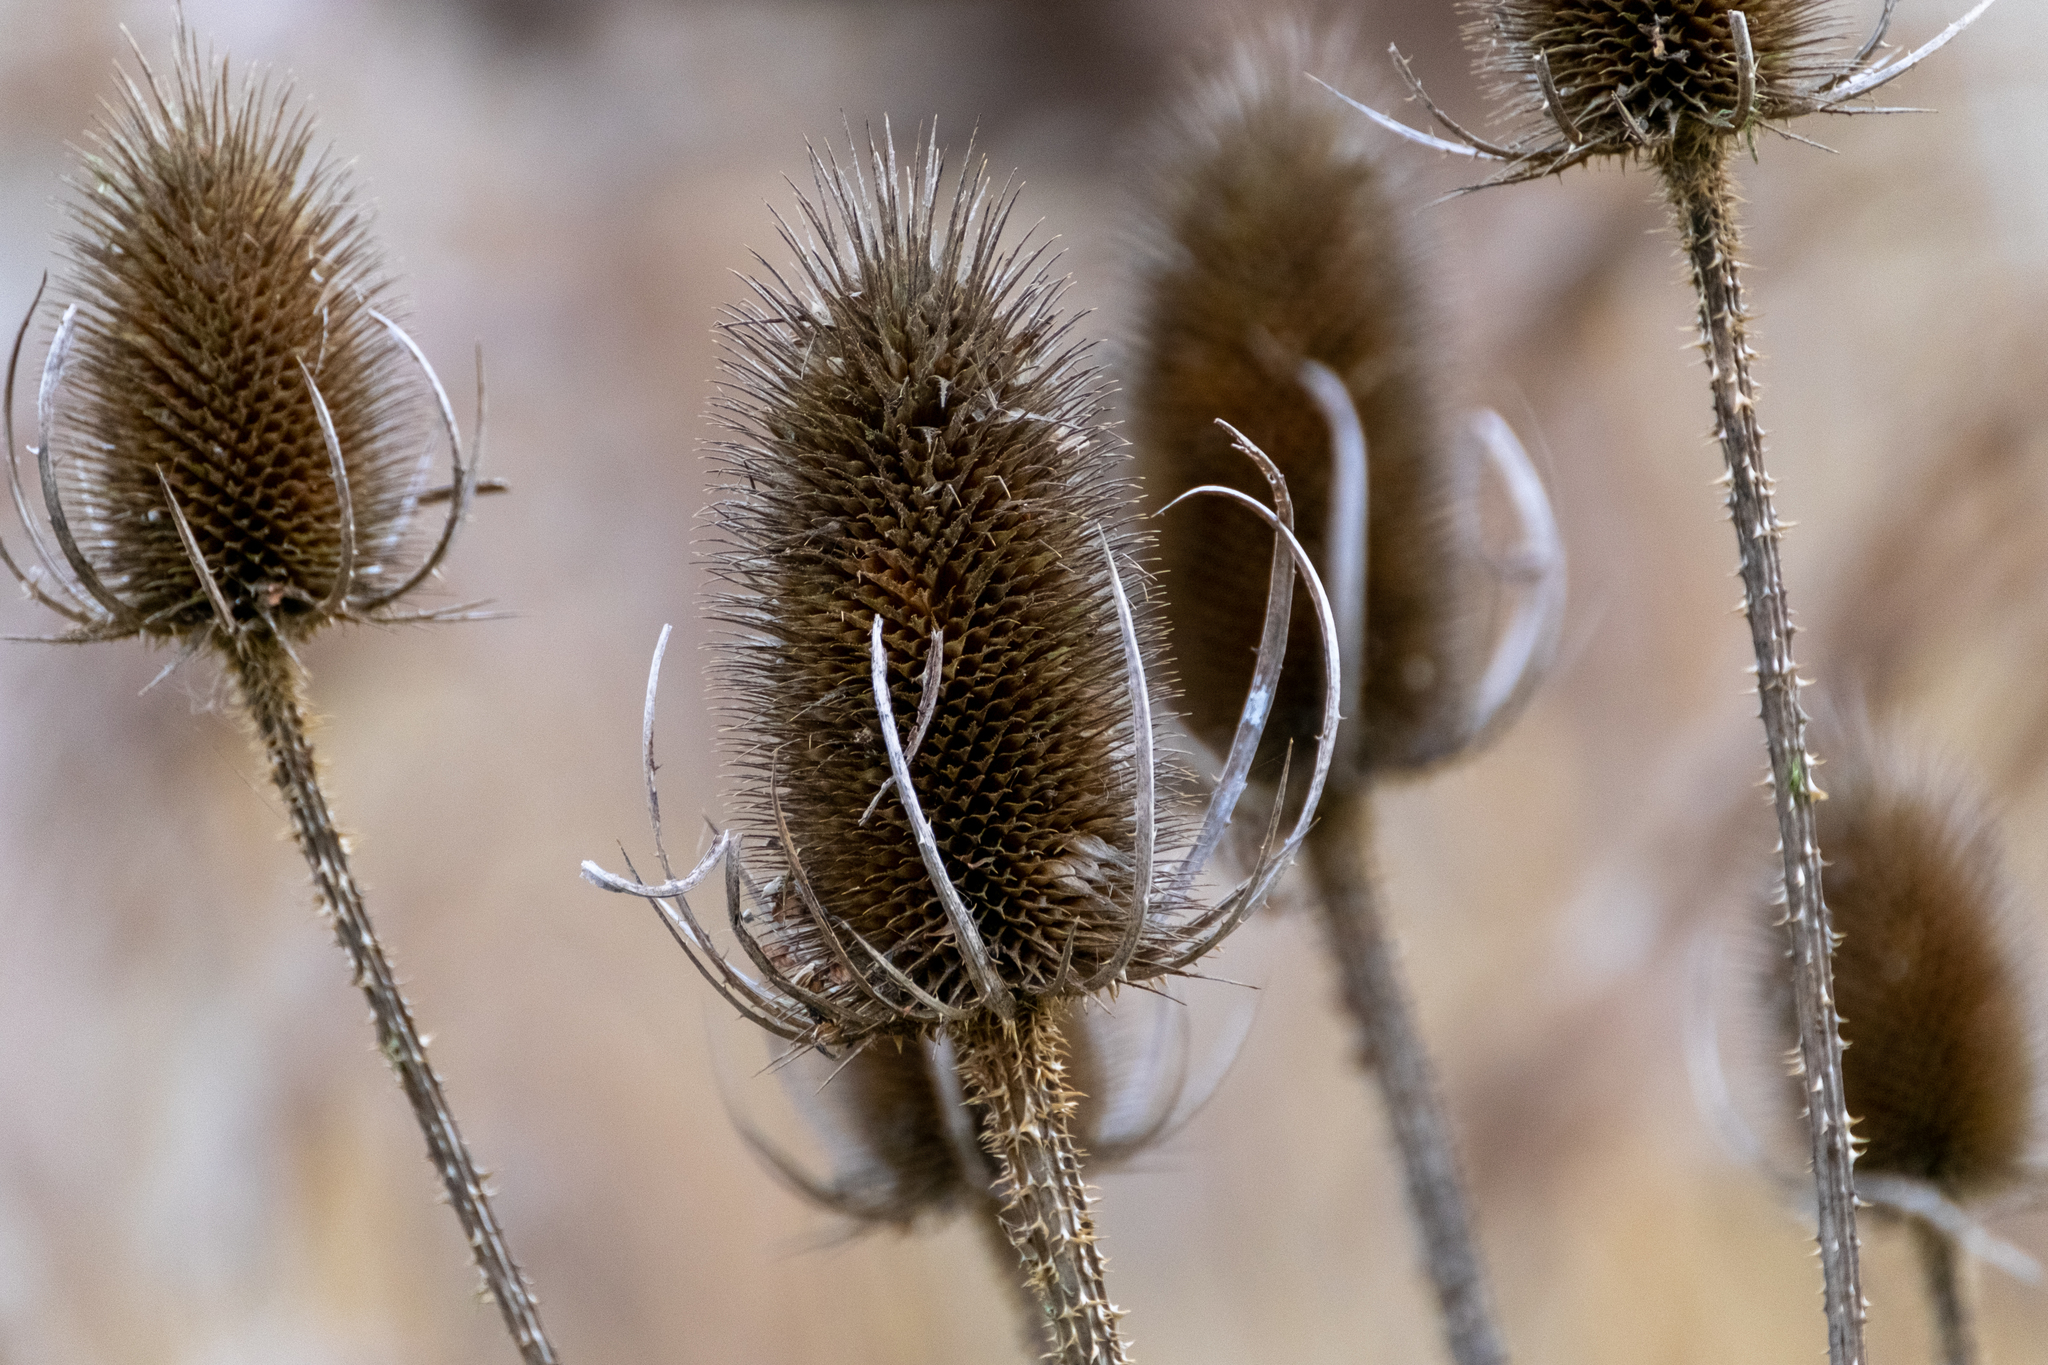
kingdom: Plantae
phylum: Tracheophyta
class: Magnoliopsida
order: Dipsacales
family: Caprifoliaceae
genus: Dipsacus
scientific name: Dipsacus fullonum
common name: Teasel
